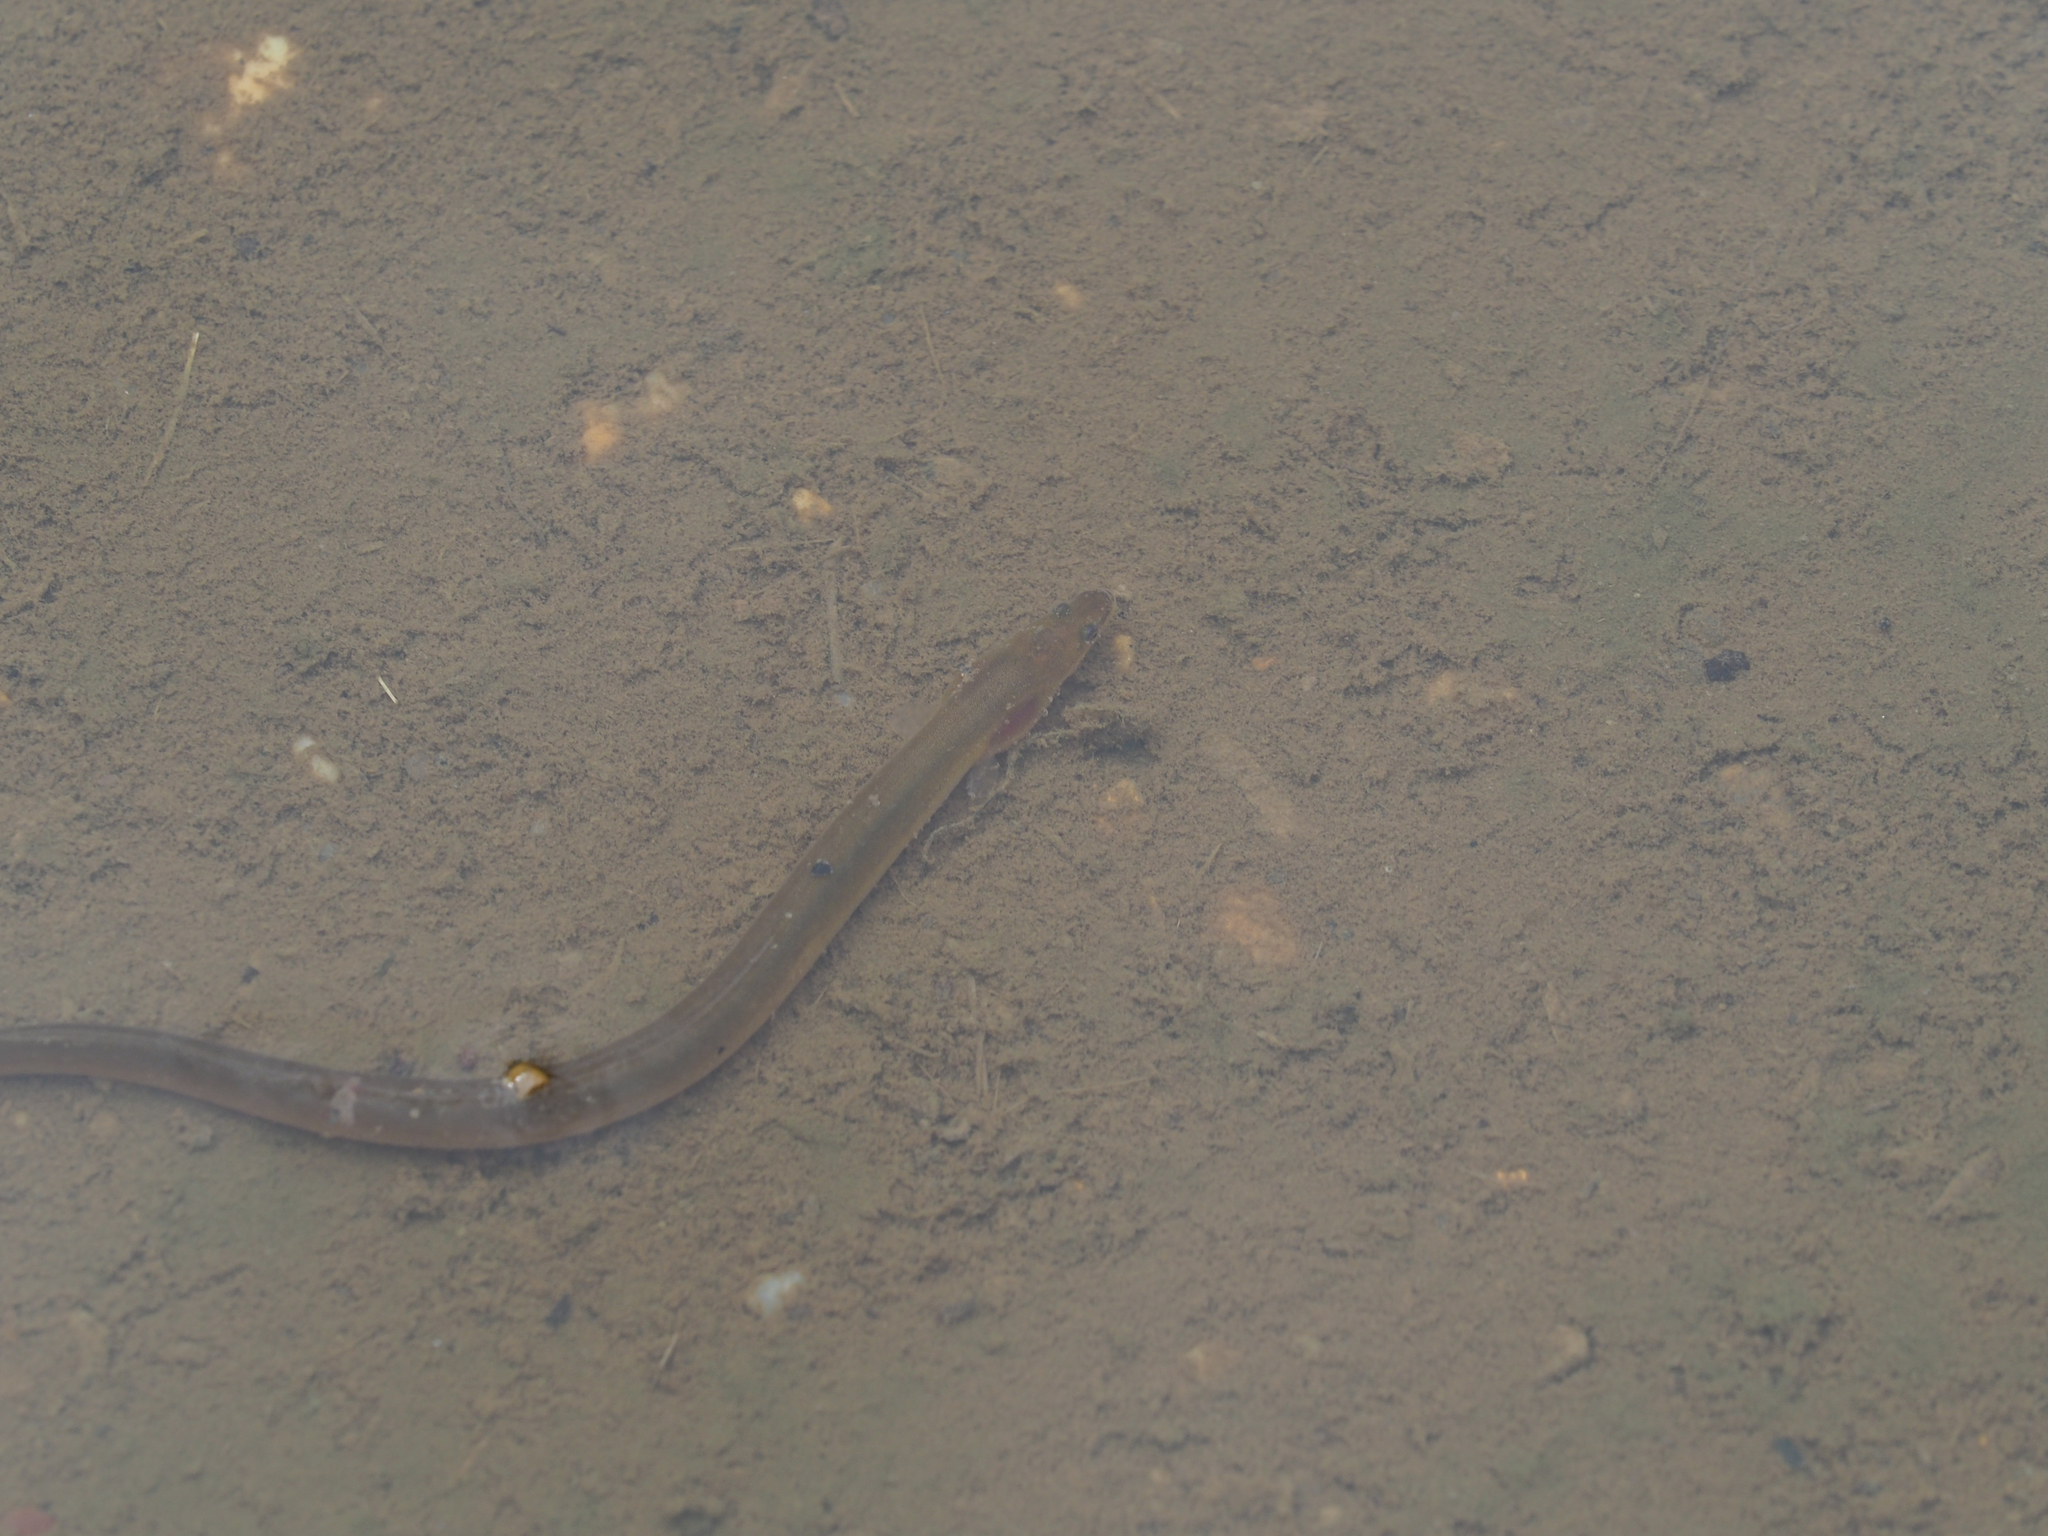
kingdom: Animalia
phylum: Chordata
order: Anguilliformes
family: Anguillidae
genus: Anguilla
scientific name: Anguilla rostrata
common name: American eel
